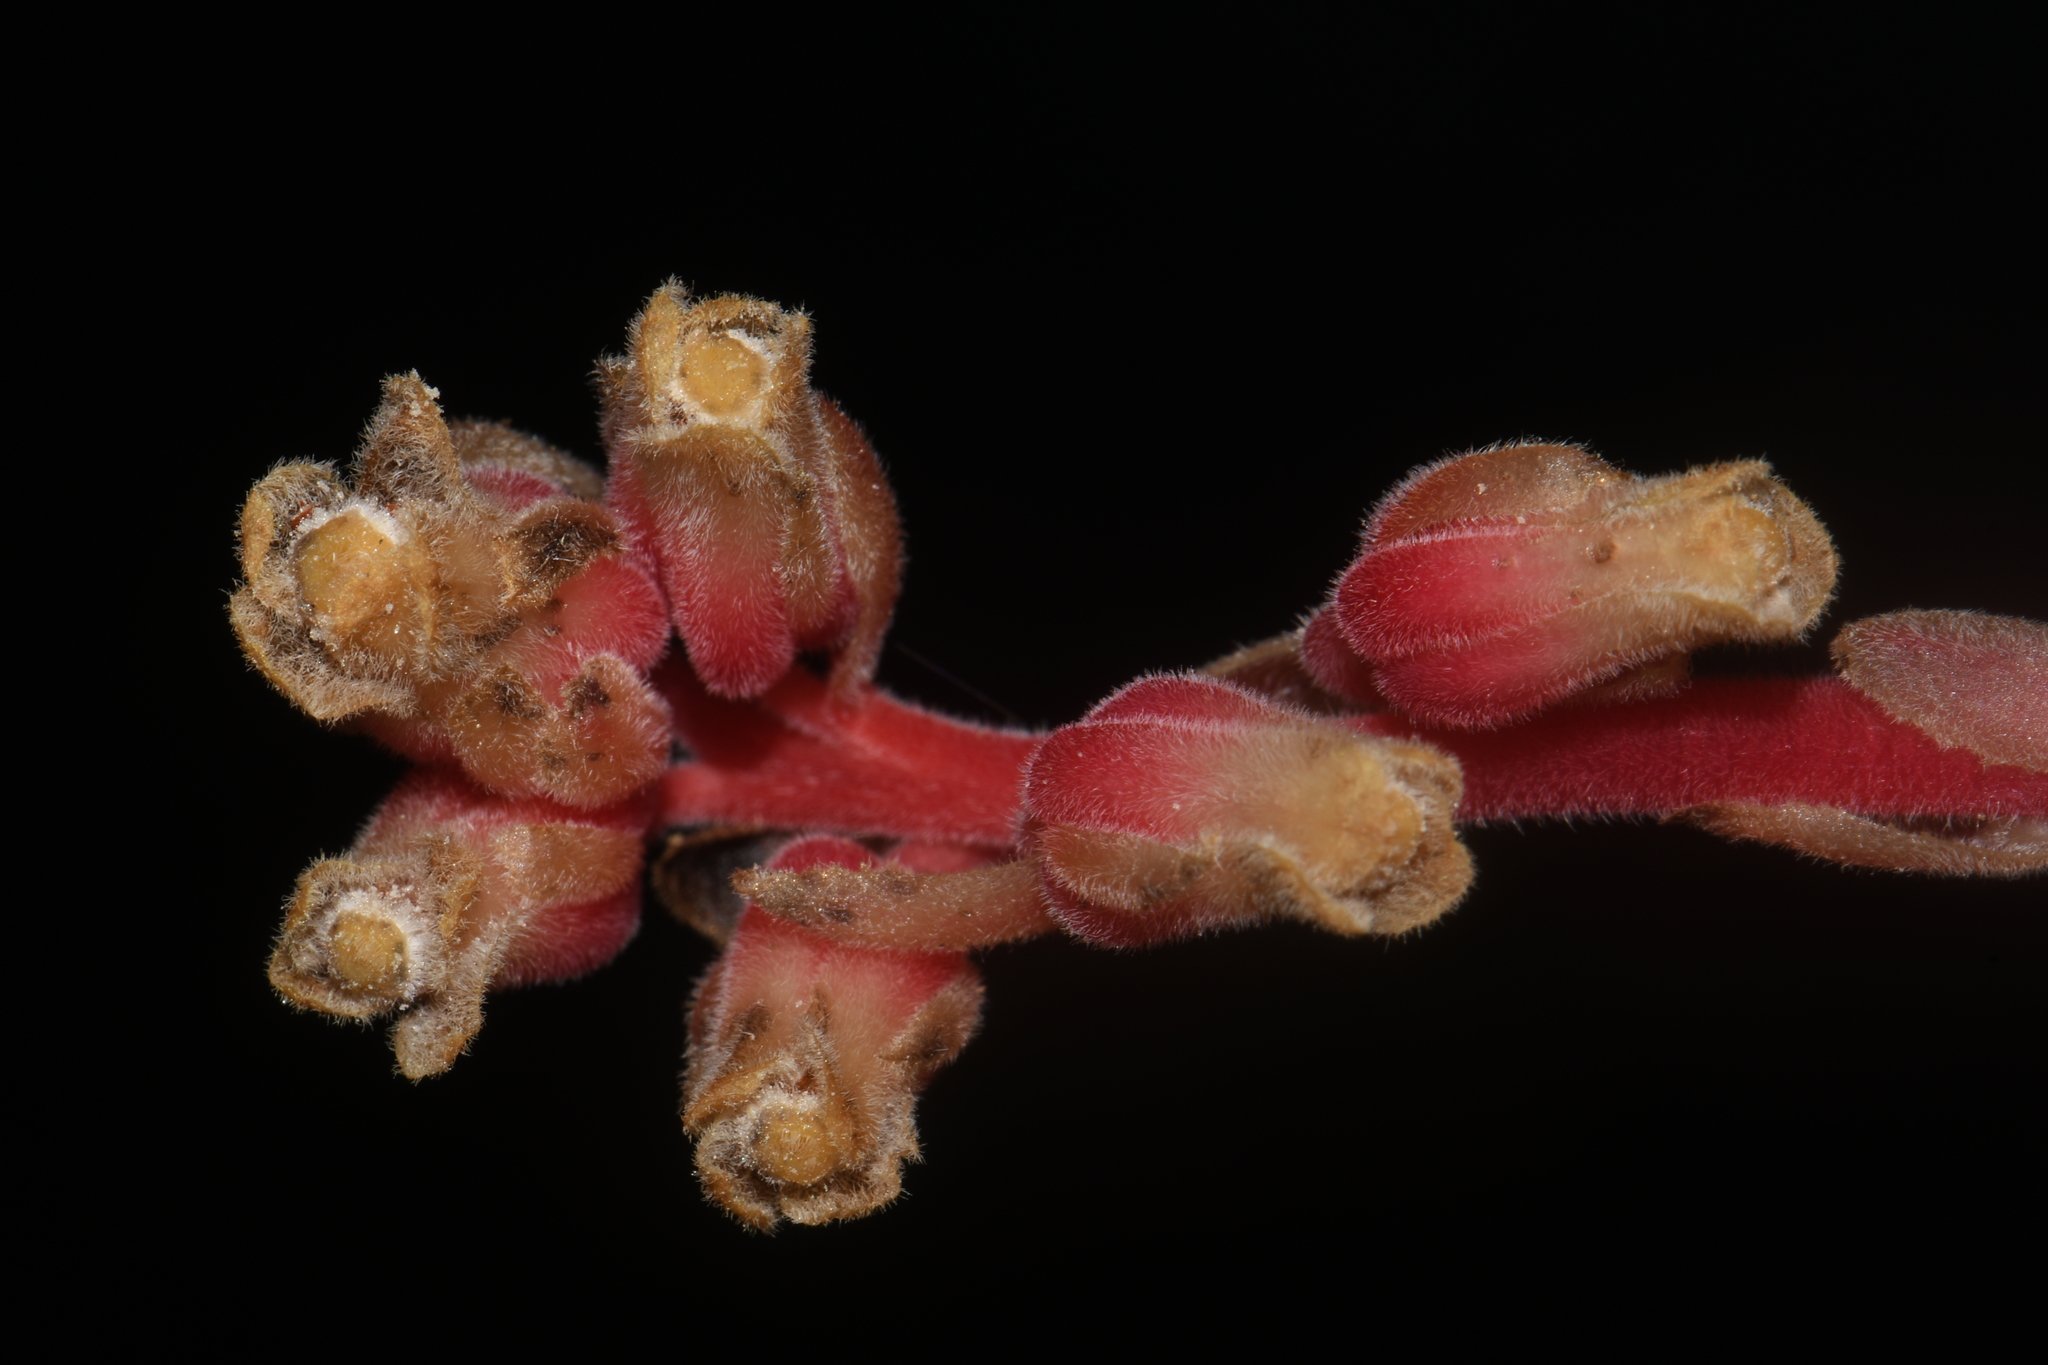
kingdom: Plantae
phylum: Tracheophyta
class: Magnoliopsida
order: Ericales
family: Ericaceae
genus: Hypopitys
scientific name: Hypopitys monotropa
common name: Yellow bird's-nest
